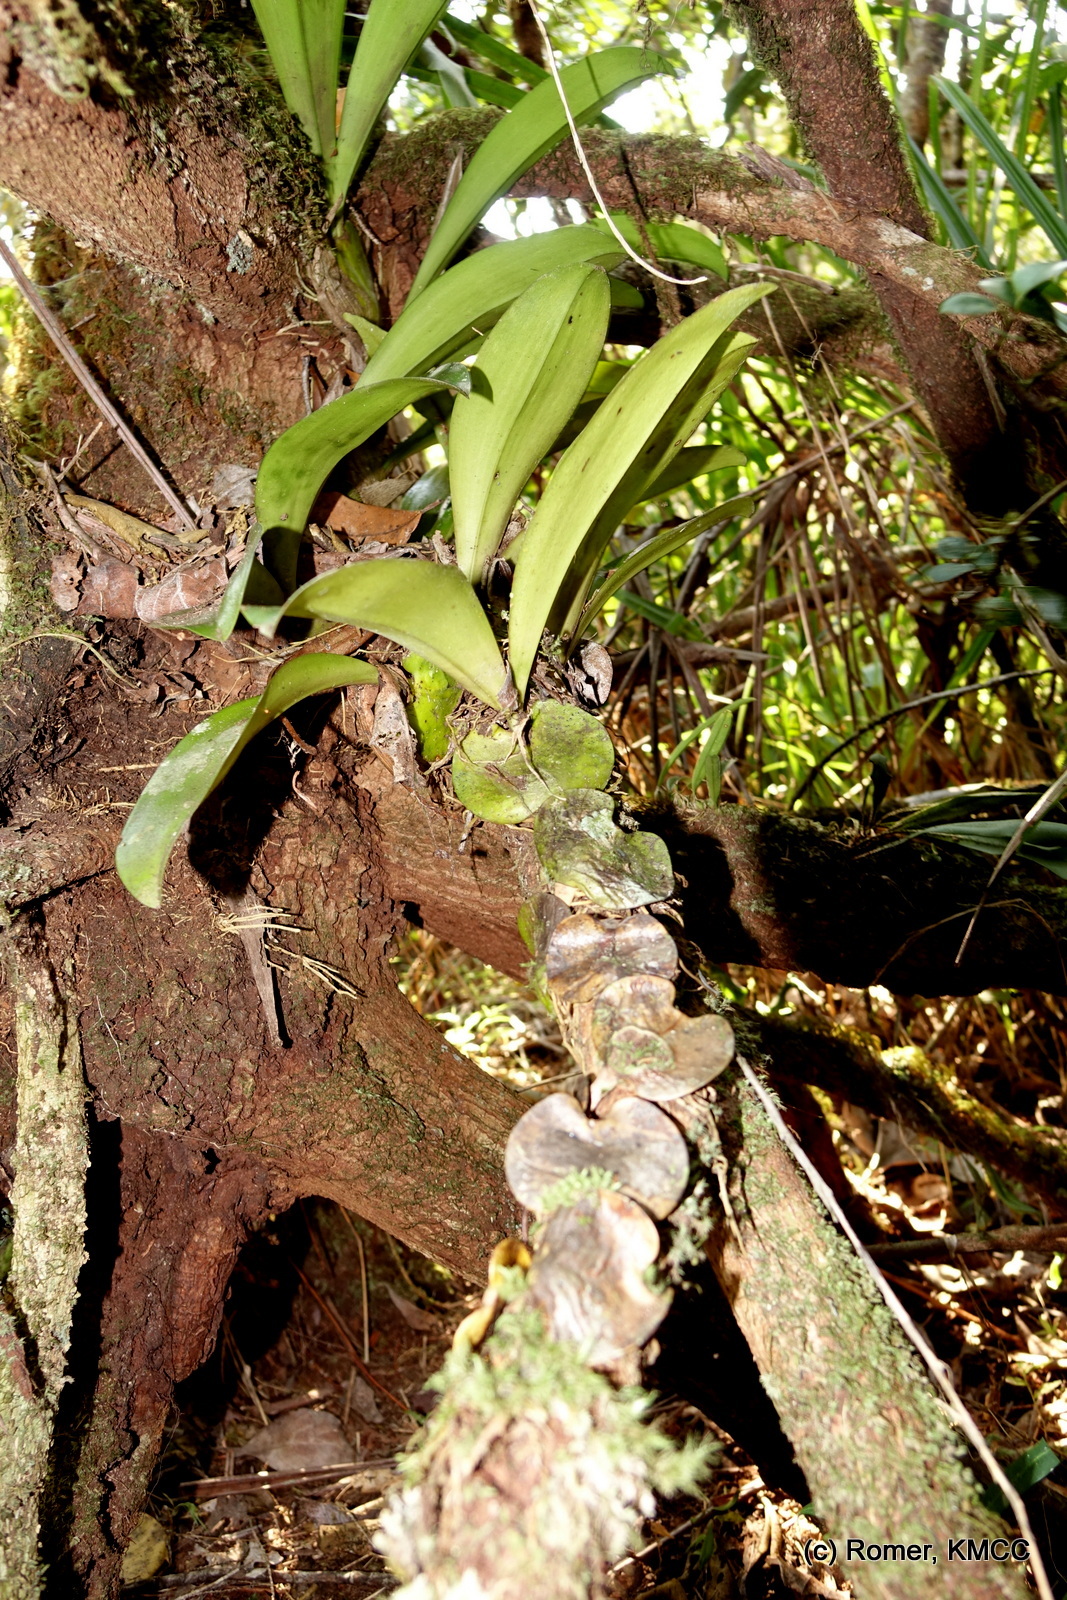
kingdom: Plantae
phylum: Tracheophyta
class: Liliopsida
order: Asparagales
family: Orchidaceae
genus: Bulbophyllum
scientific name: Bulbophyllum hamelinii
